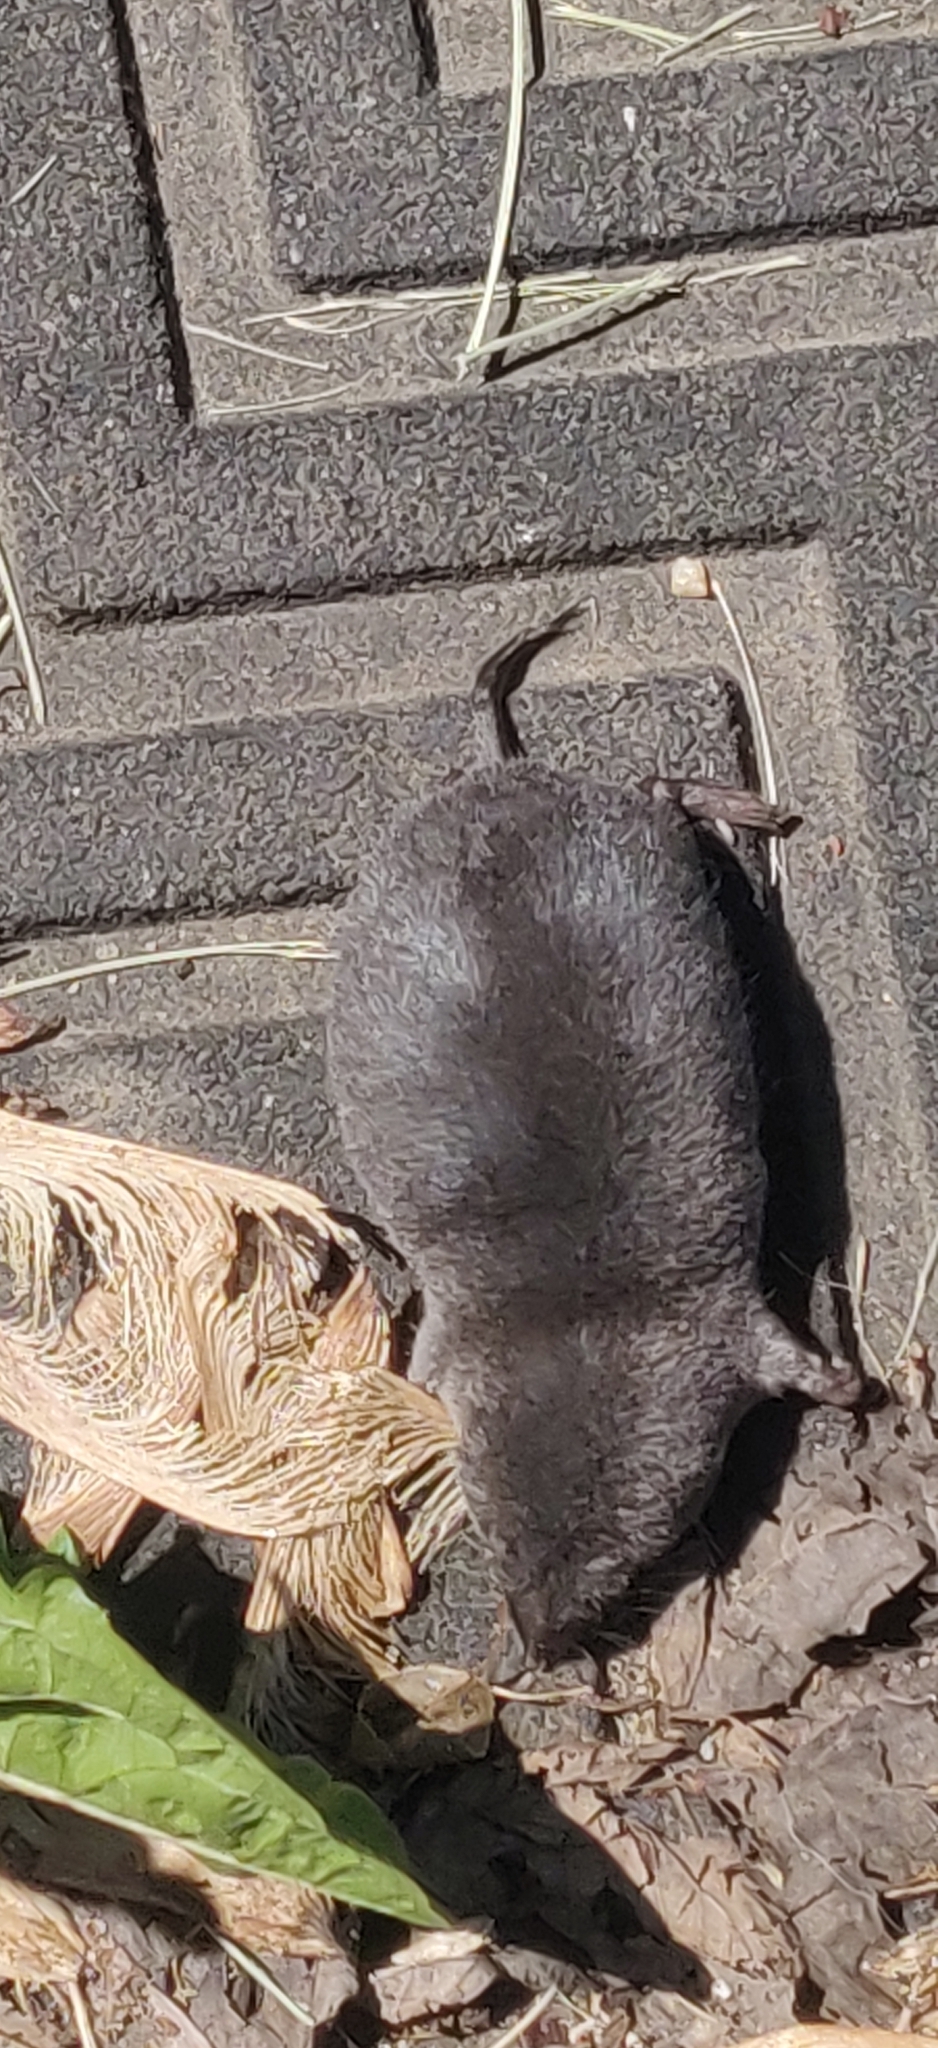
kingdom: Animalia
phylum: Chordata
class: Mammalia
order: Soricomorpha
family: Soricidae
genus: Blarina
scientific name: Blarina brevicauda
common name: Northern short-tailed shrew
